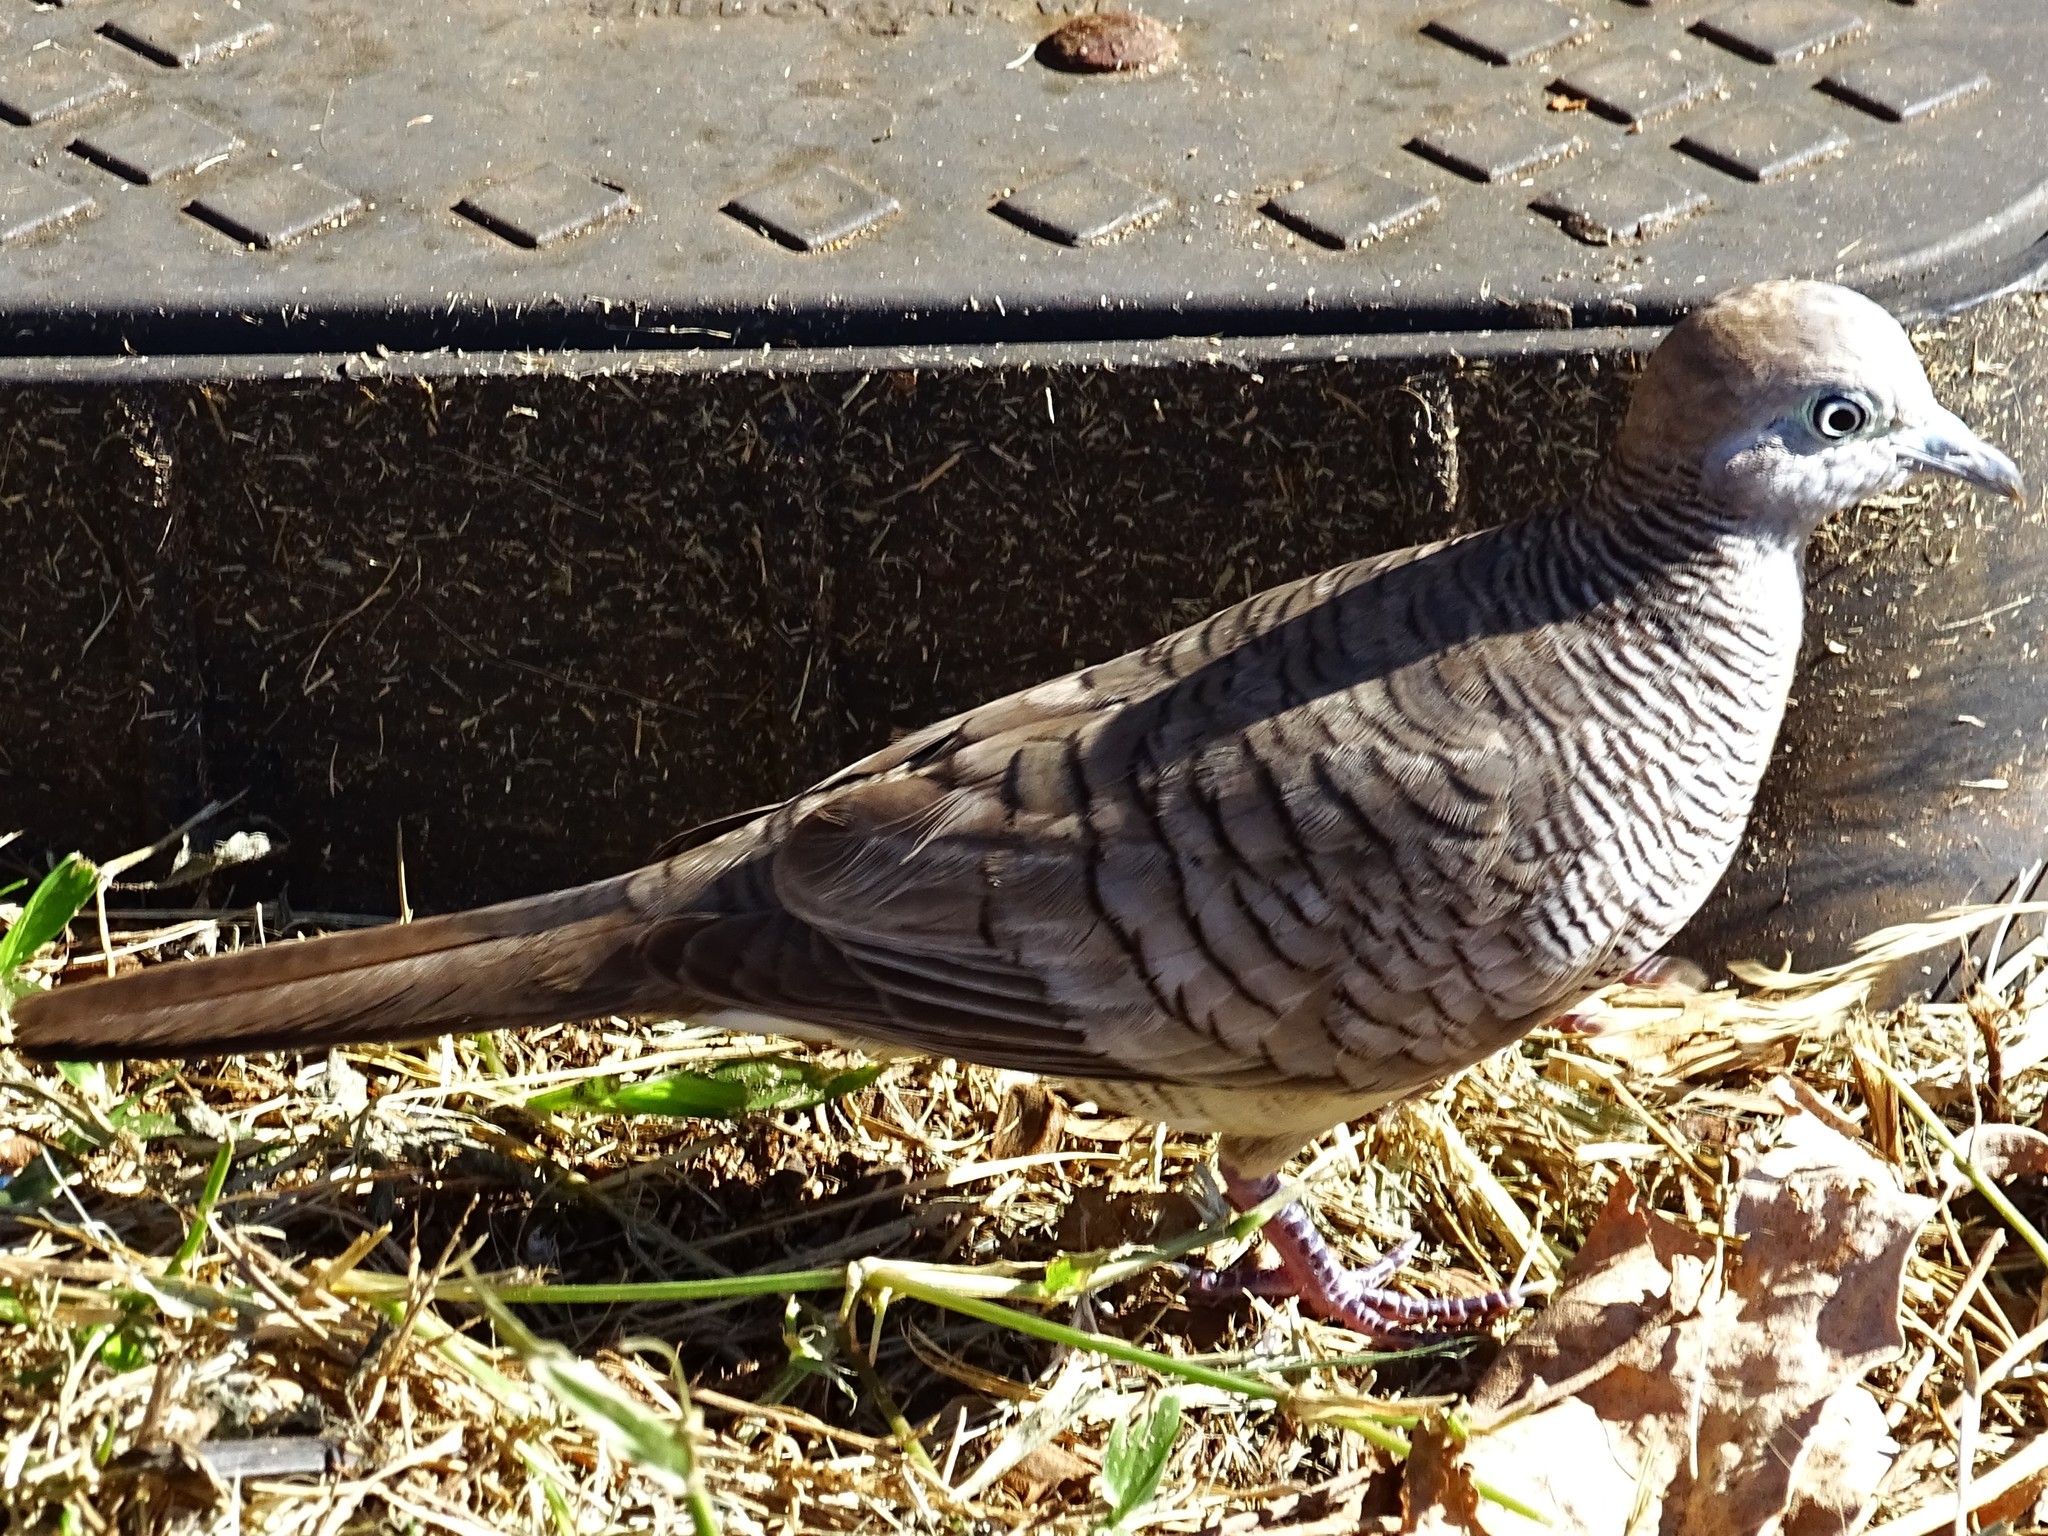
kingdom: Animalia
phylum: Chordata
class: Aves
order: Columbiformes
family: Columbidae
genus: Geopelia
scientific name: Geopelia striata
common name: Zebra dove
